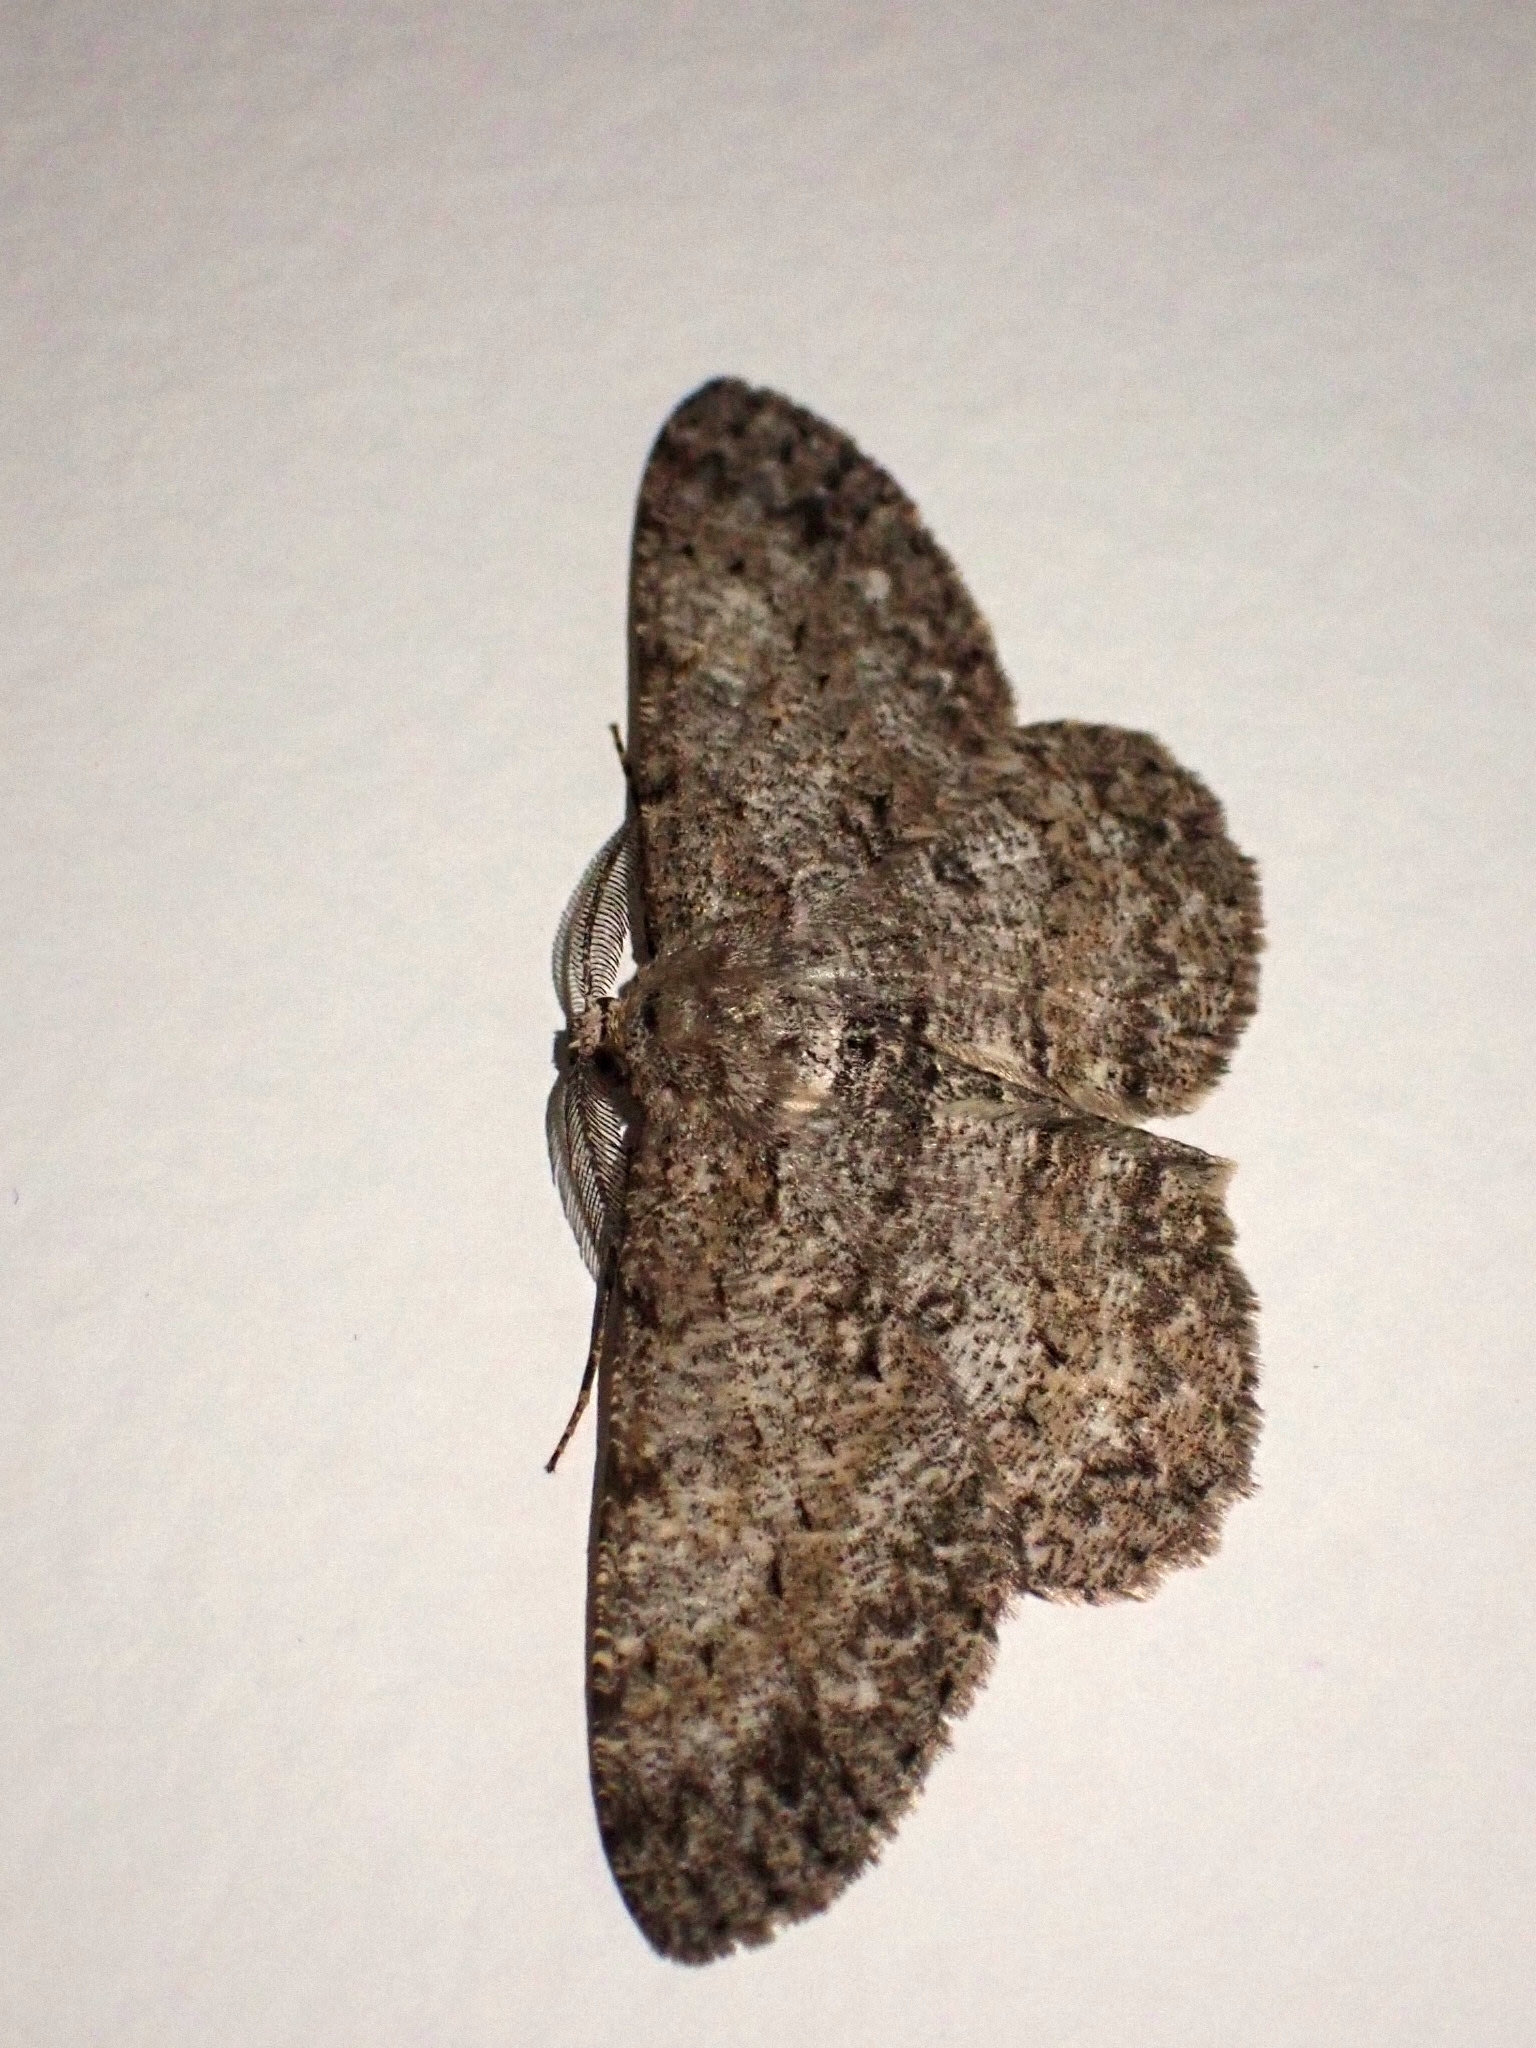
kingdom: Animalia
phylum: Arthropoda
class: Insecta
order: Lepidoptera
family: Geometridae
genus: Hypomecis
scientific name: Hypomecis punctinalis
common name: Pale oak beauty
